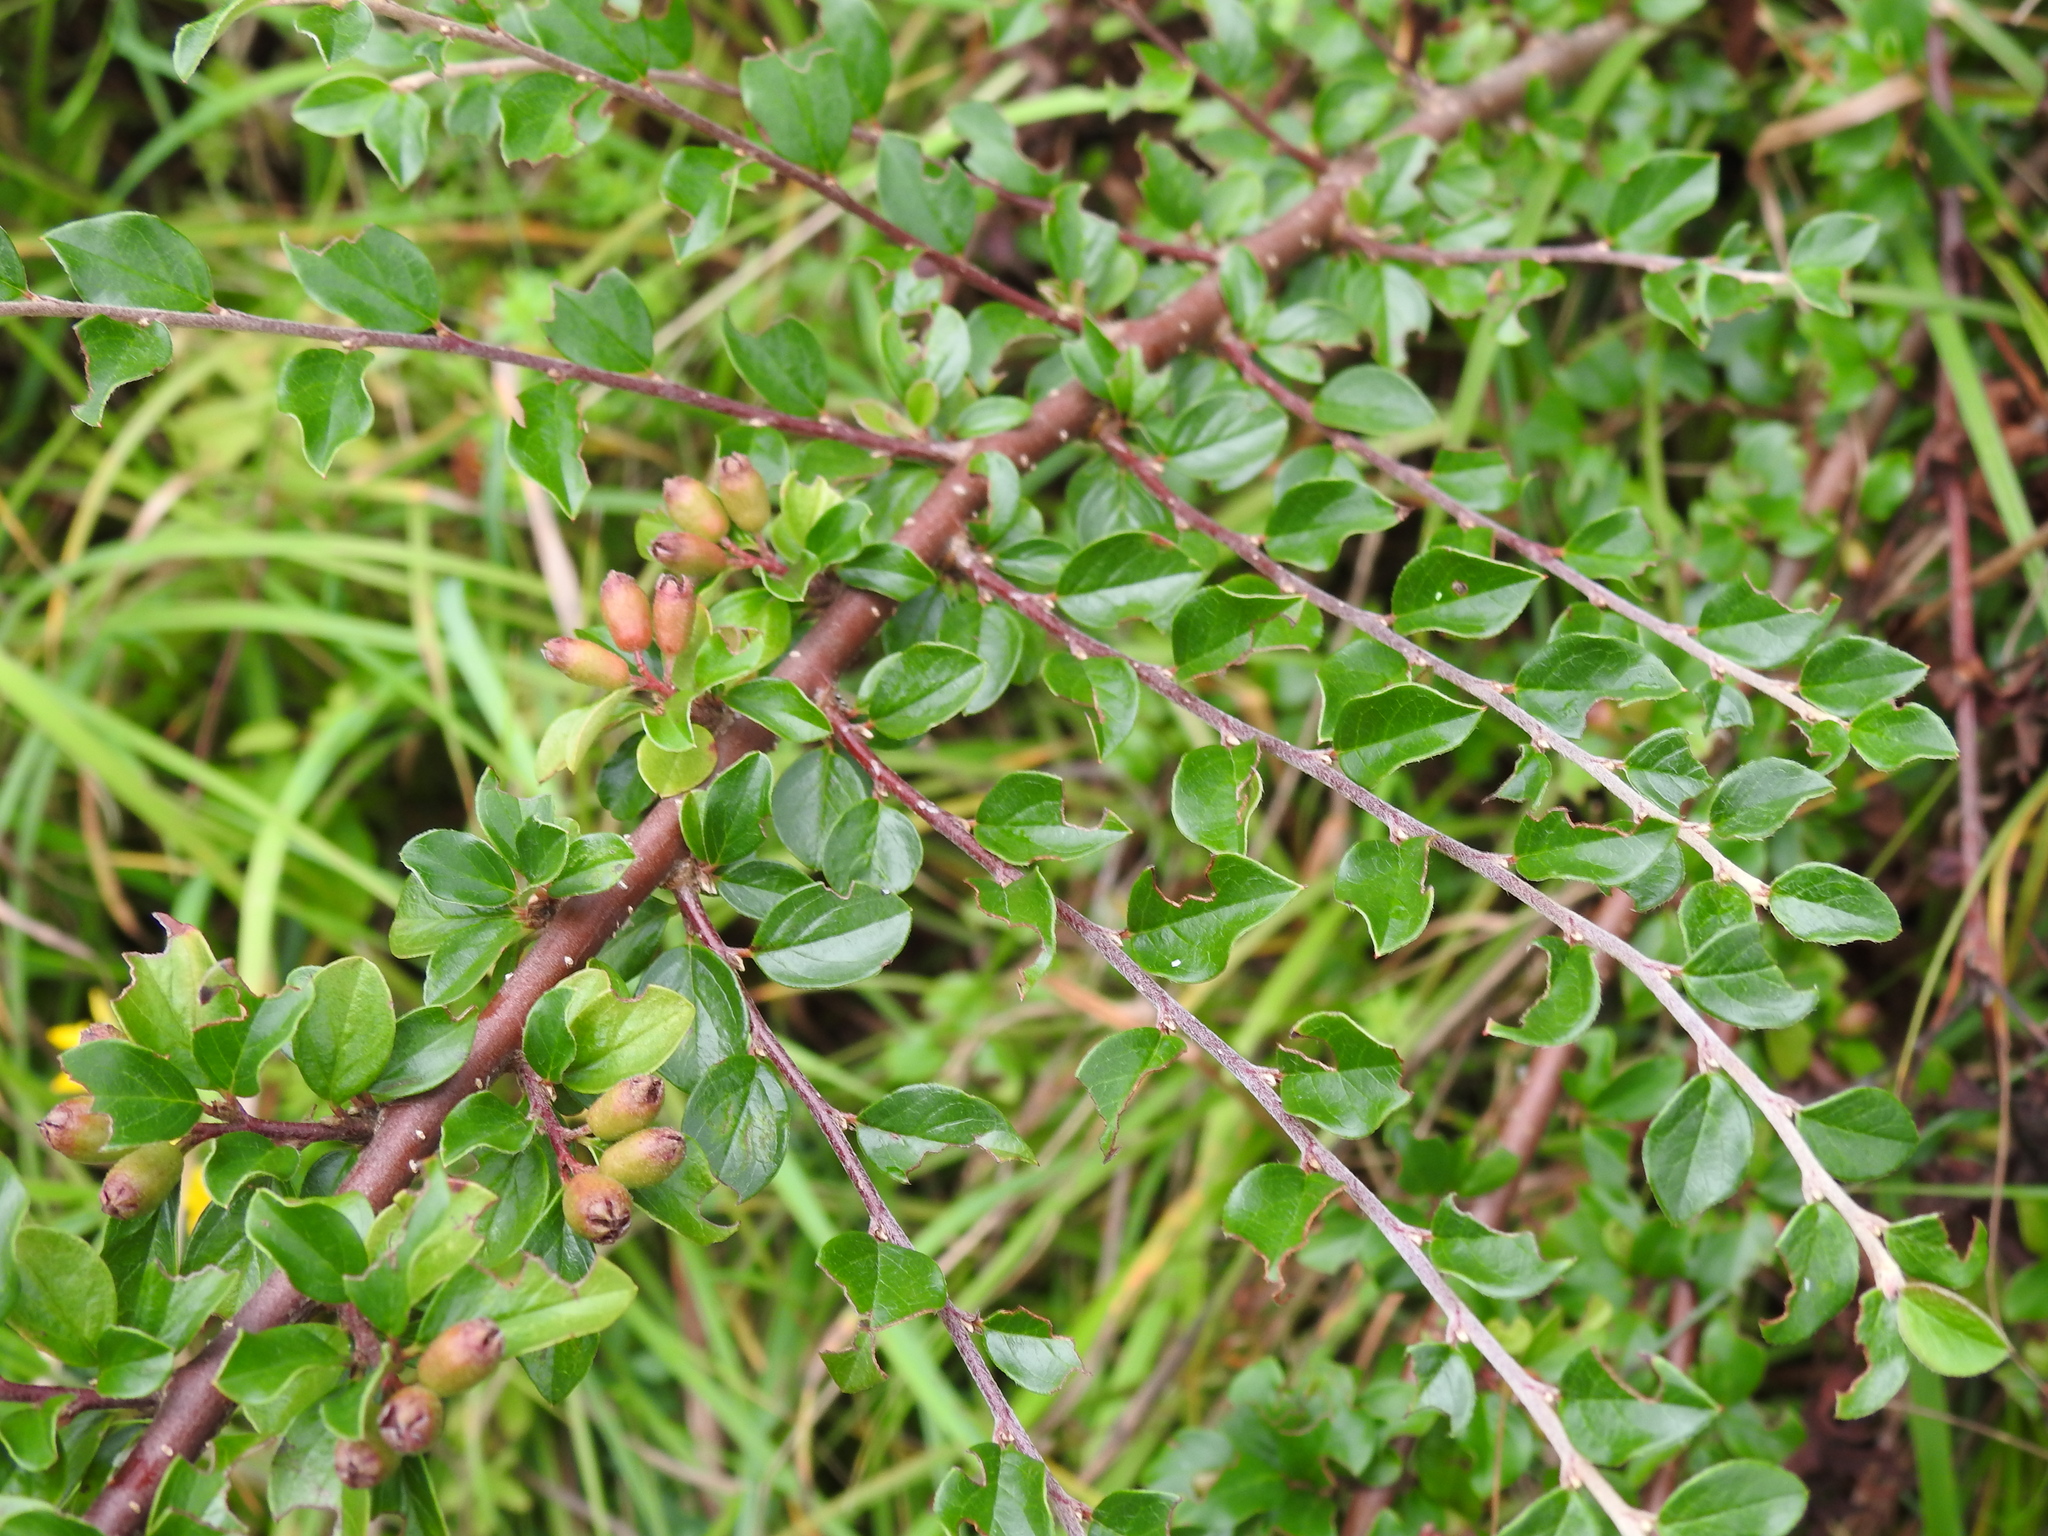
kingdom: Plantae
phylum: Tracheophyta
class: Magnoliopsida
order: Rosales
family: Rosaceae
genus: Cotoneaster
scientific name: Cotoneaster divaricatus
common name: Spreading cotoneaster
